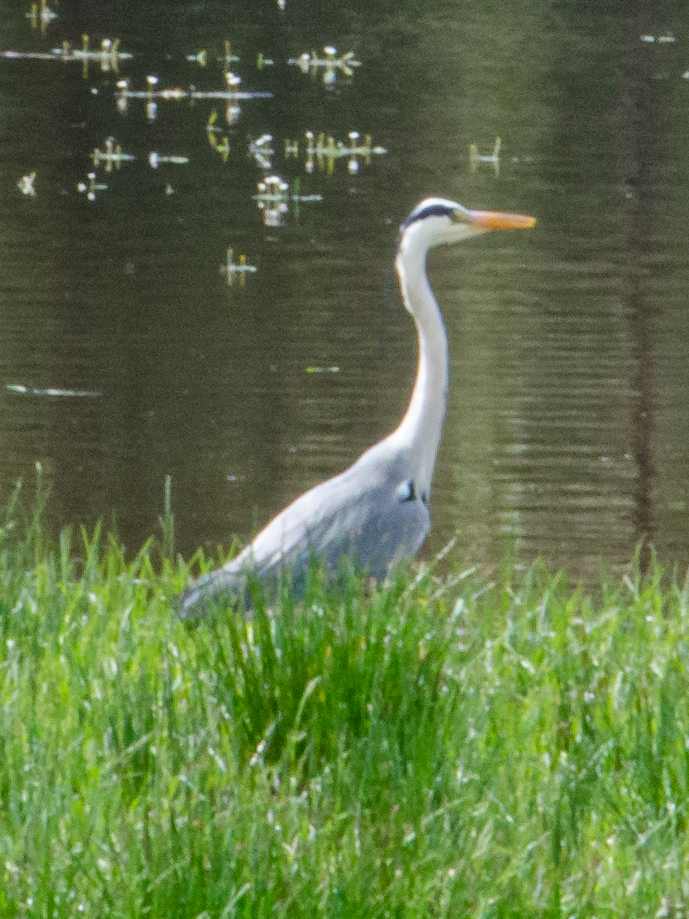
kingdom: Animalia
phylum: Chordata
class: Aves
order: Pelecaniformes
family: Ardeidae
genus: Ardea
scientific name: Ardea cinerea
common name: Grey heron
